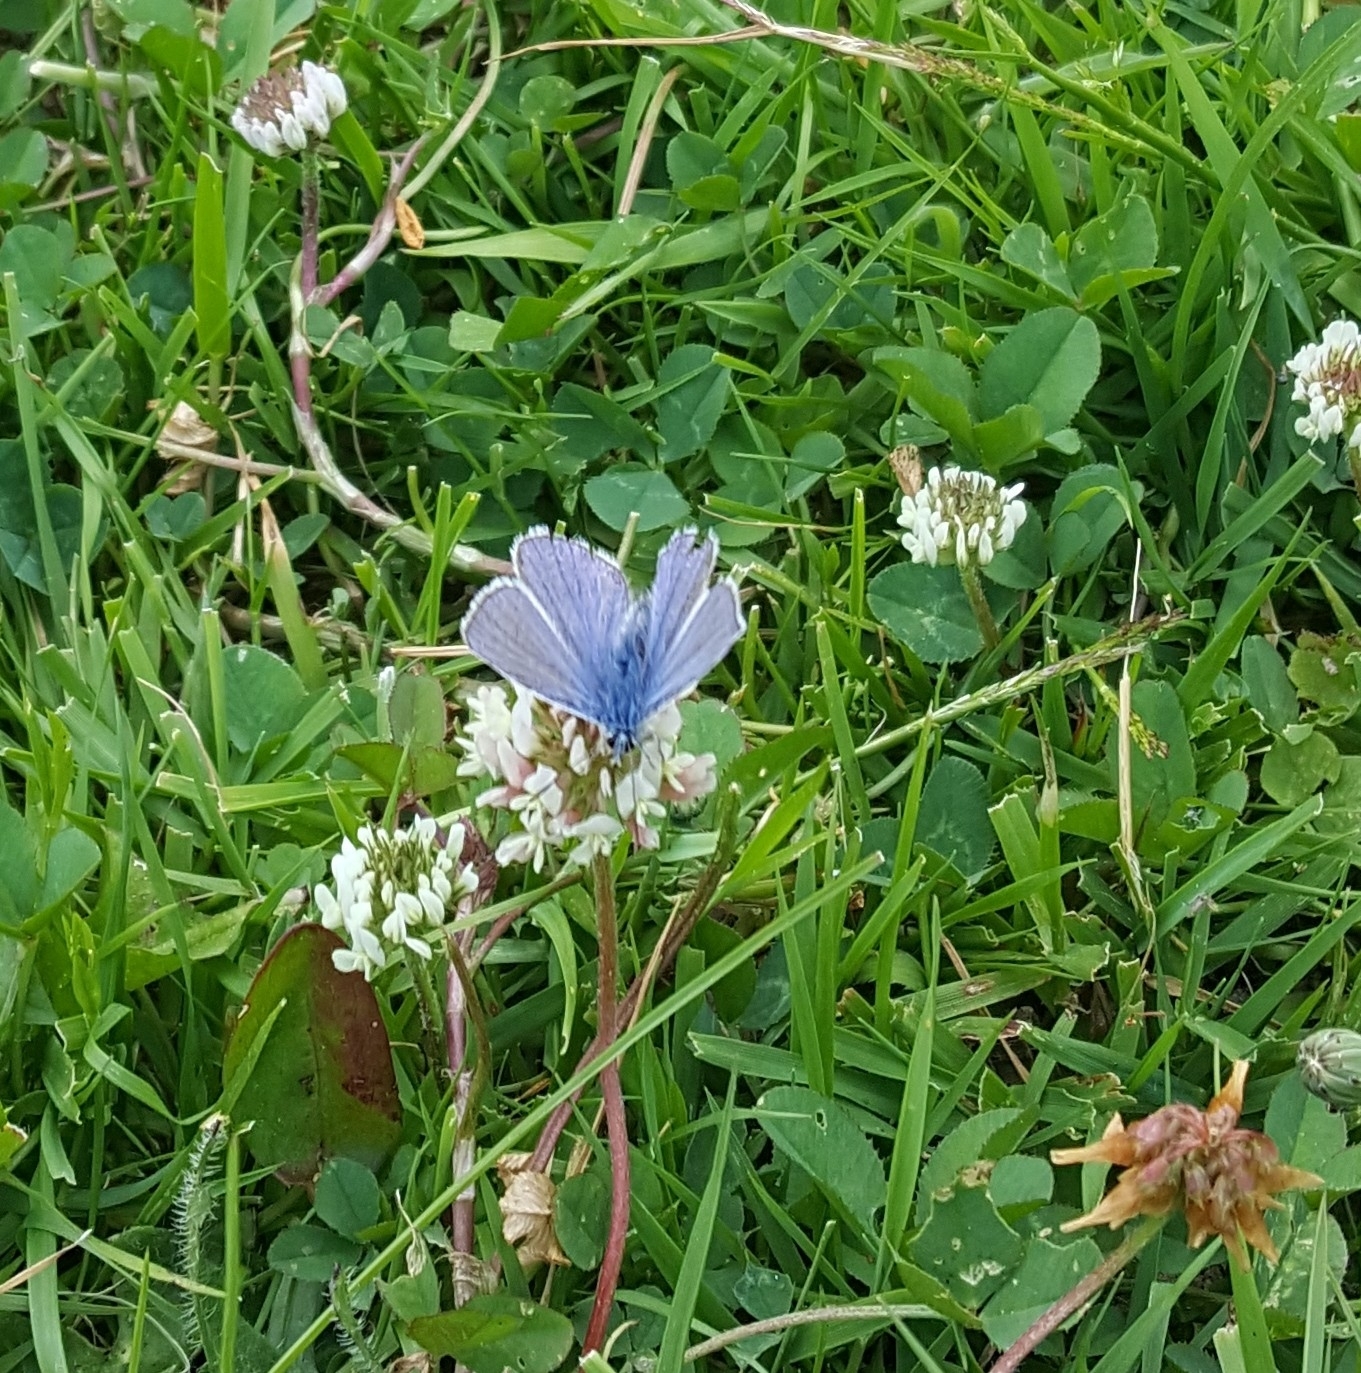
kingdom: Animalia
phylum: Arthropoda
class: Insecta
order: Lepidoptera
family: Lycaenidae
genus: Polyommatus
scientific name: Polyommatus icarus
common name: Common blue
